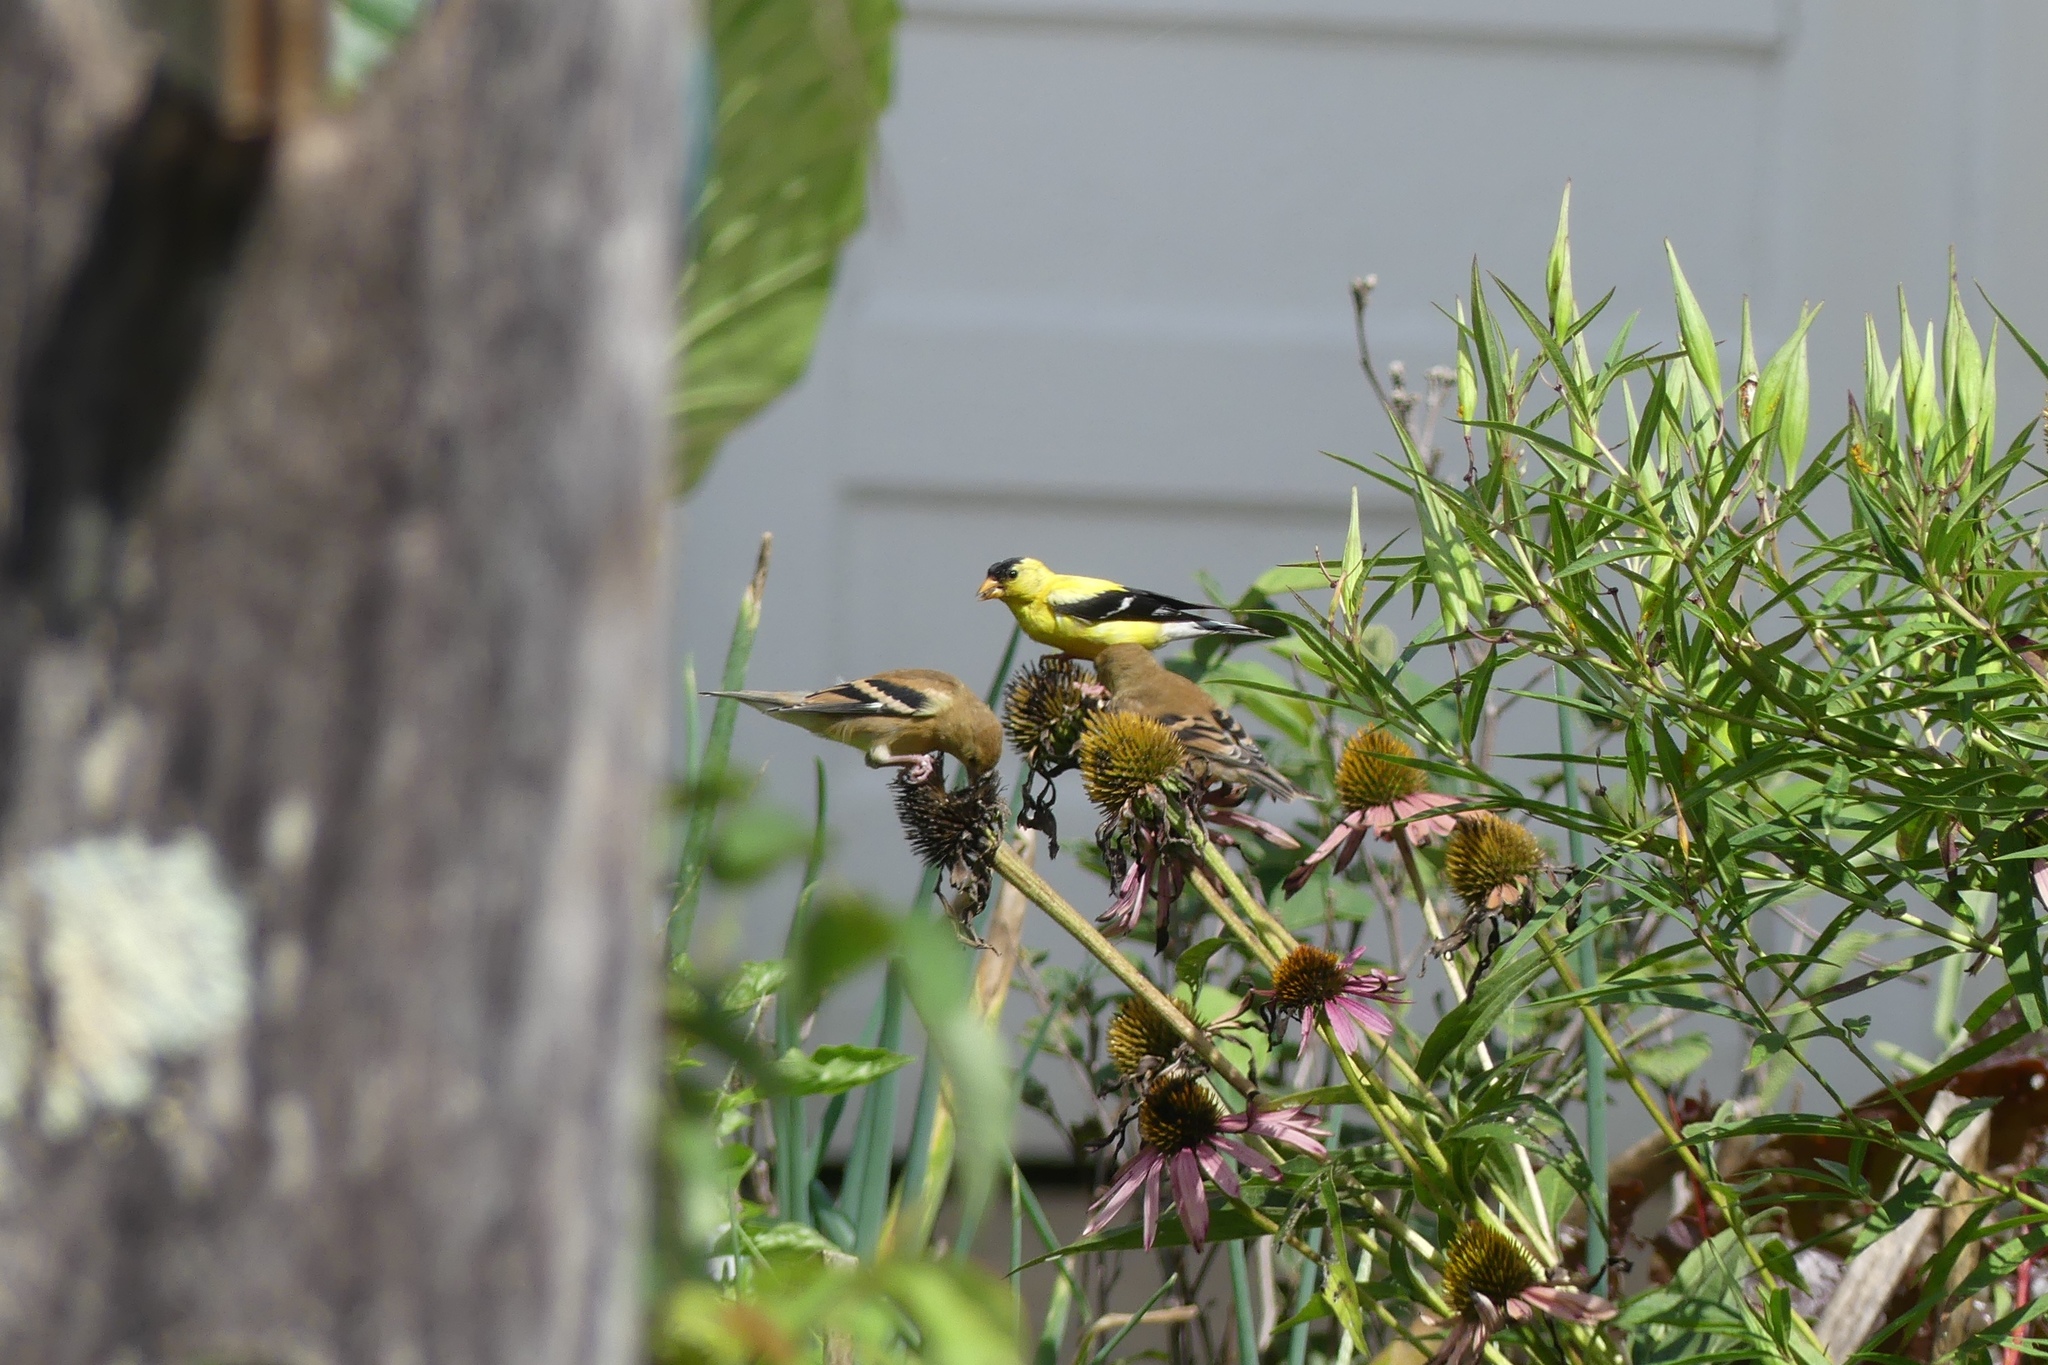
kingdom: Animalia
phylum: Chordata
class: Aves
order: Passeriformes
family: Fringillidae
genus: Spinus
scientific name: Spinus tristis
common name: American goldfinch
